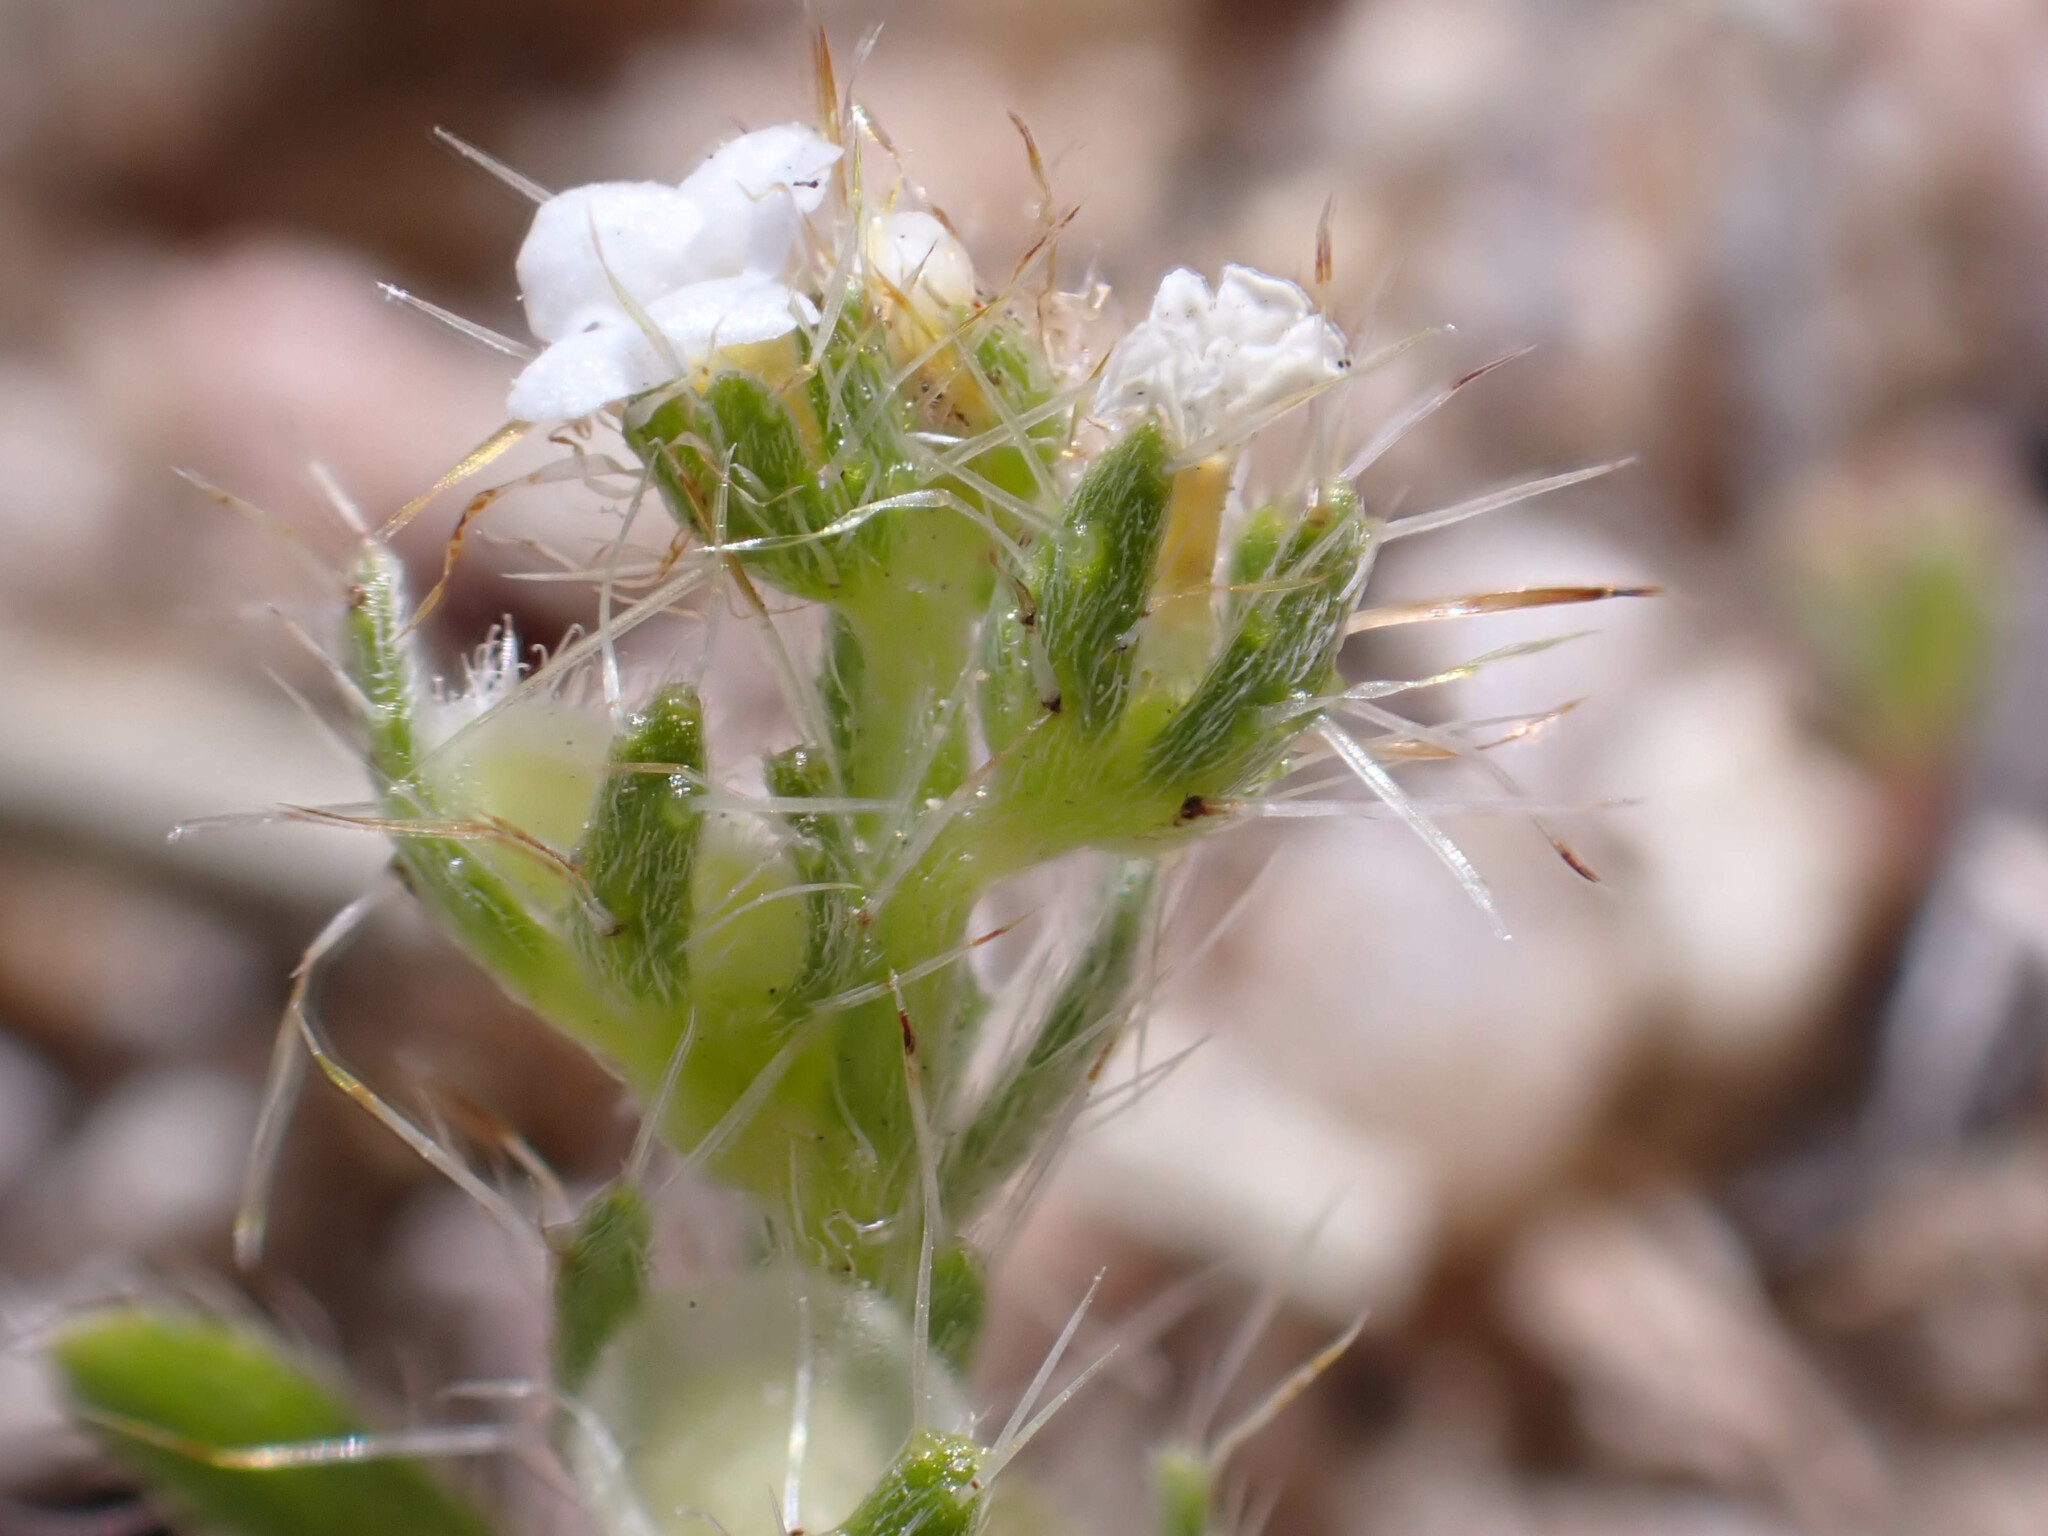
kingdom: Plantae
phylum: Tracheophyta
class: Magnoliopsida
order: Boraginales
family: Boraginaceae
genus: Pectocarya
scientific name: Pectocarya setosa
